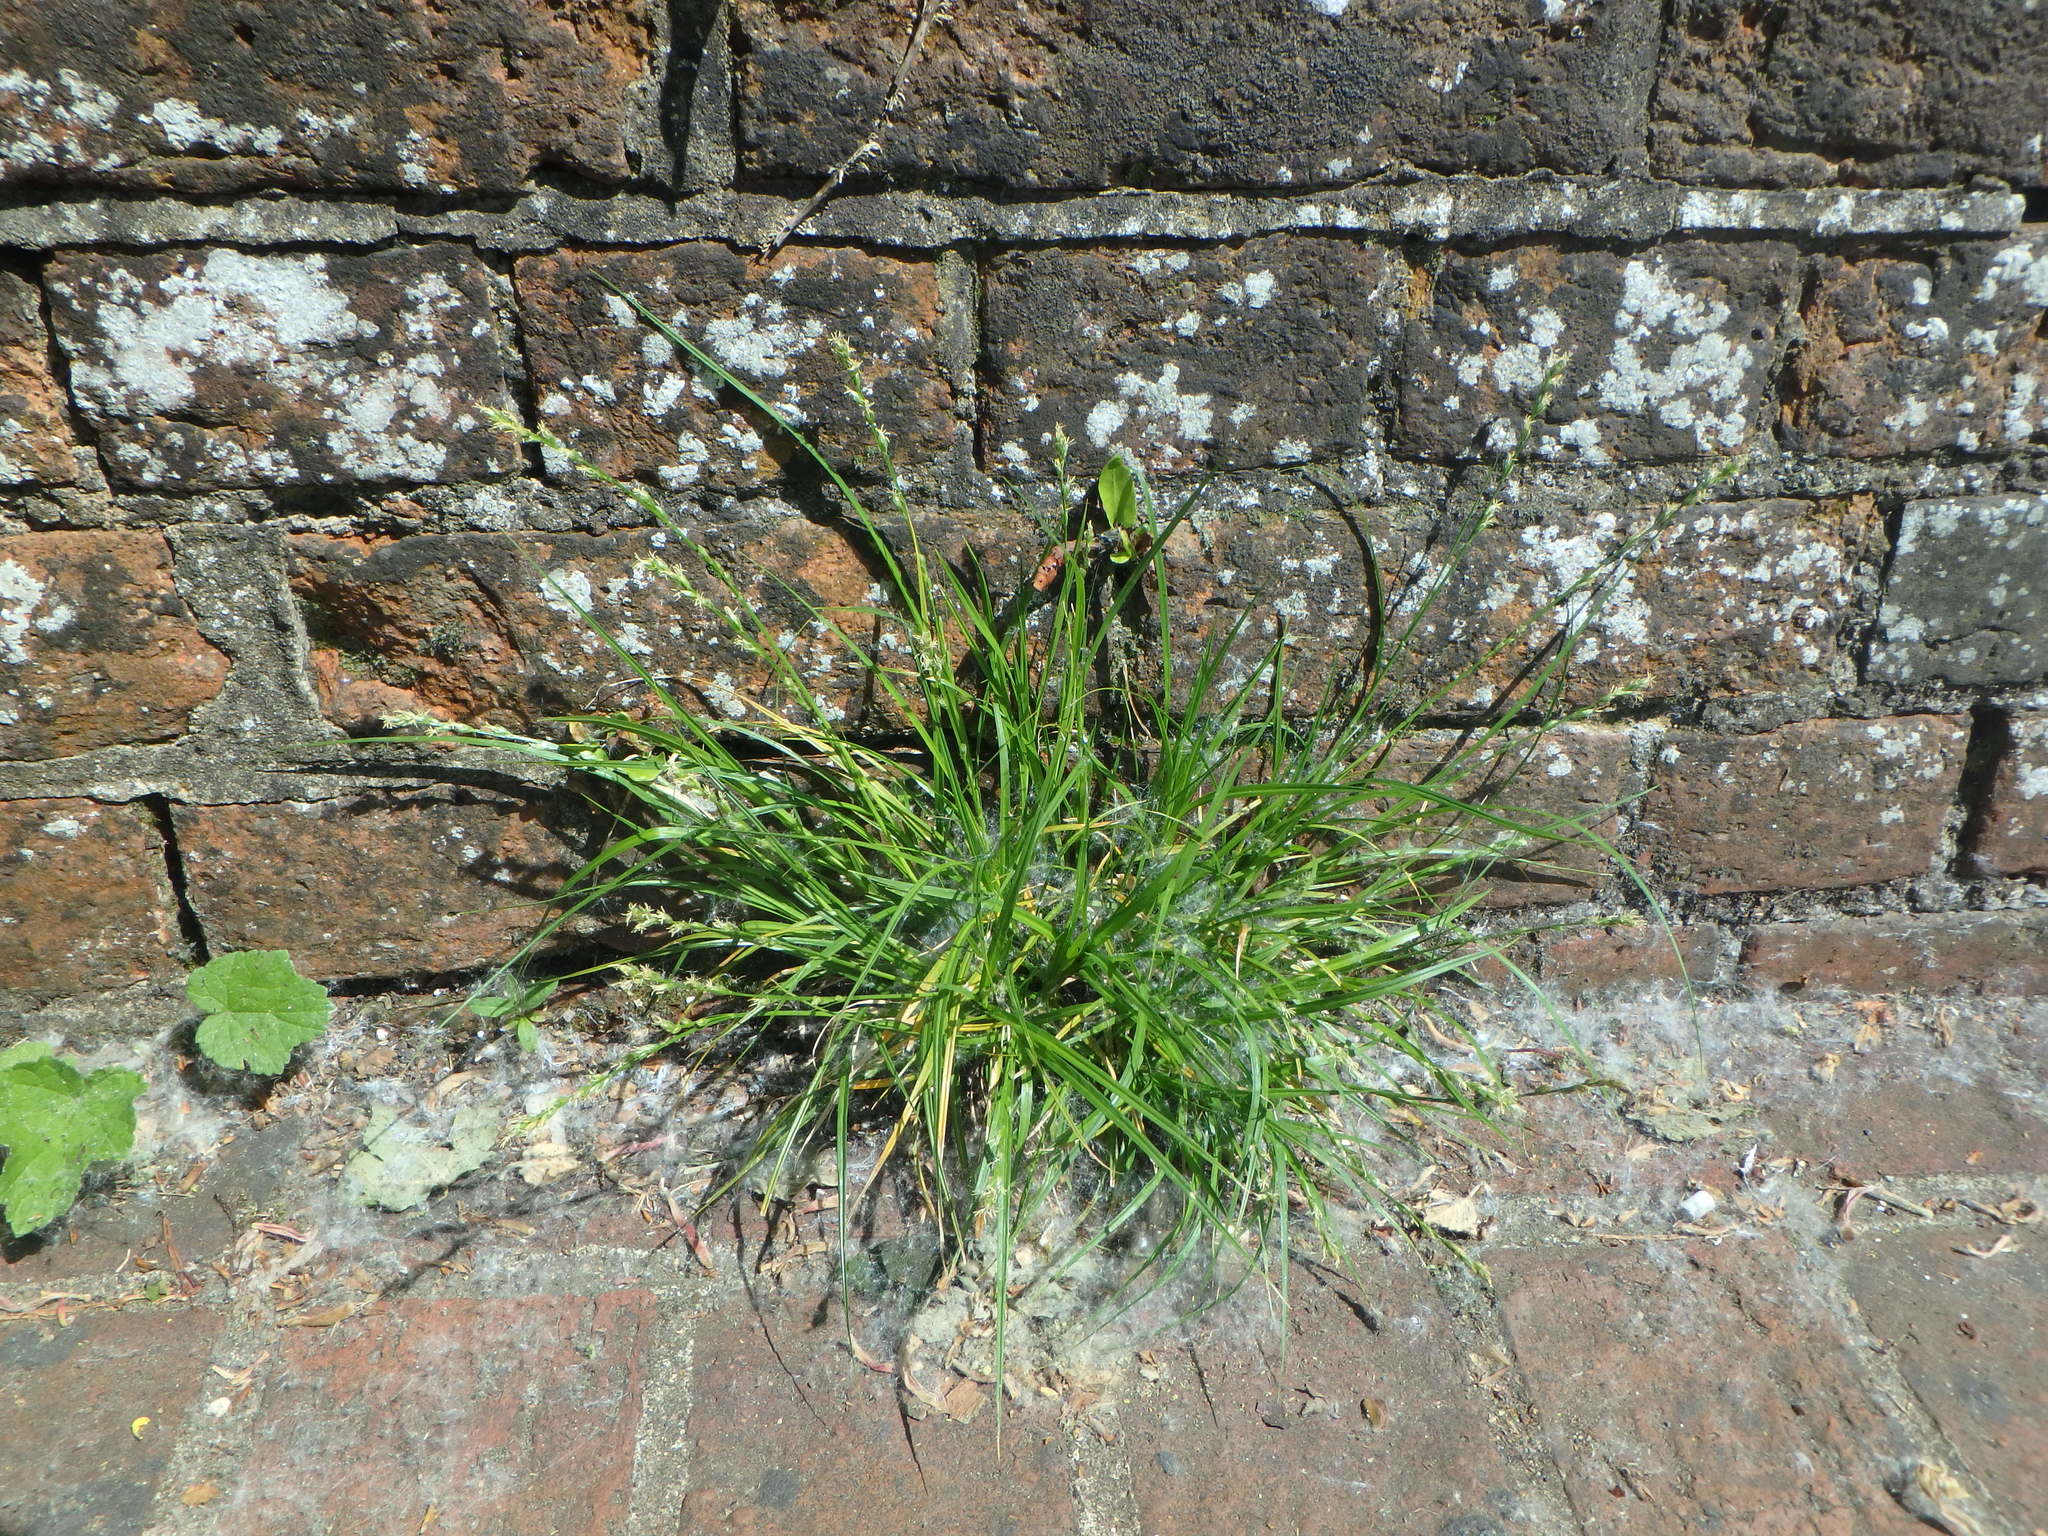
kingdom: Plantae
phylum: Tracheophyta
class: Liliopsida
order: Poales
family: Cyperaceae
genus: Carex
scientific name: Carex divulsa
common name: Grassland sedge
